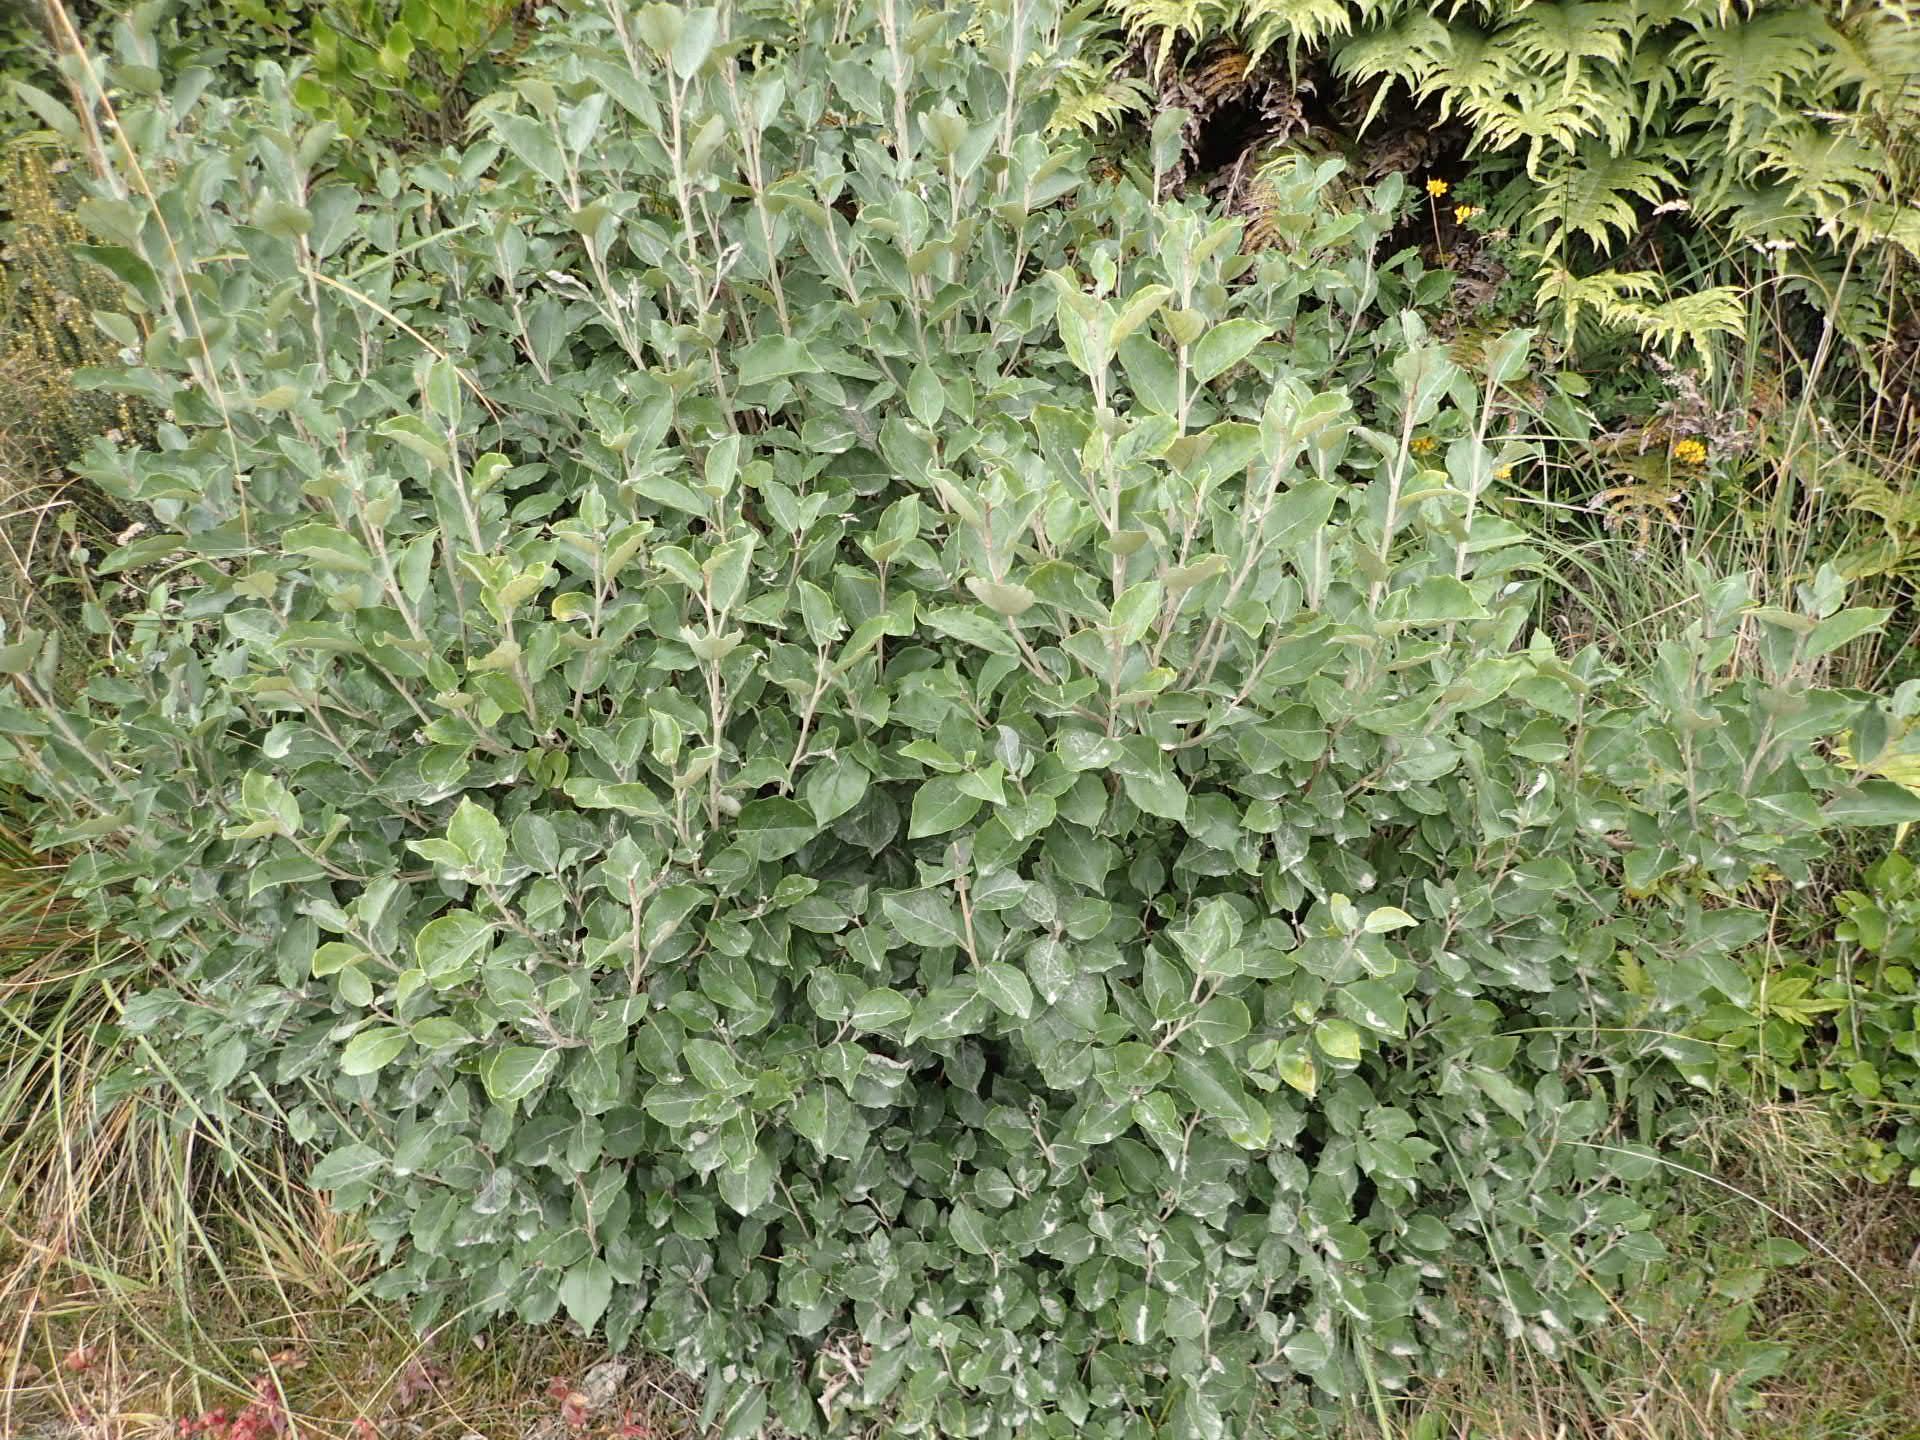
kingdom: Plantae
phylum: Tracheophyta
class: Magnoliopsida
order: Asterales
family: Asteraceae
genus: Olearia
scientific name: Olearia arborescens
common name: Glossy tree daisy
